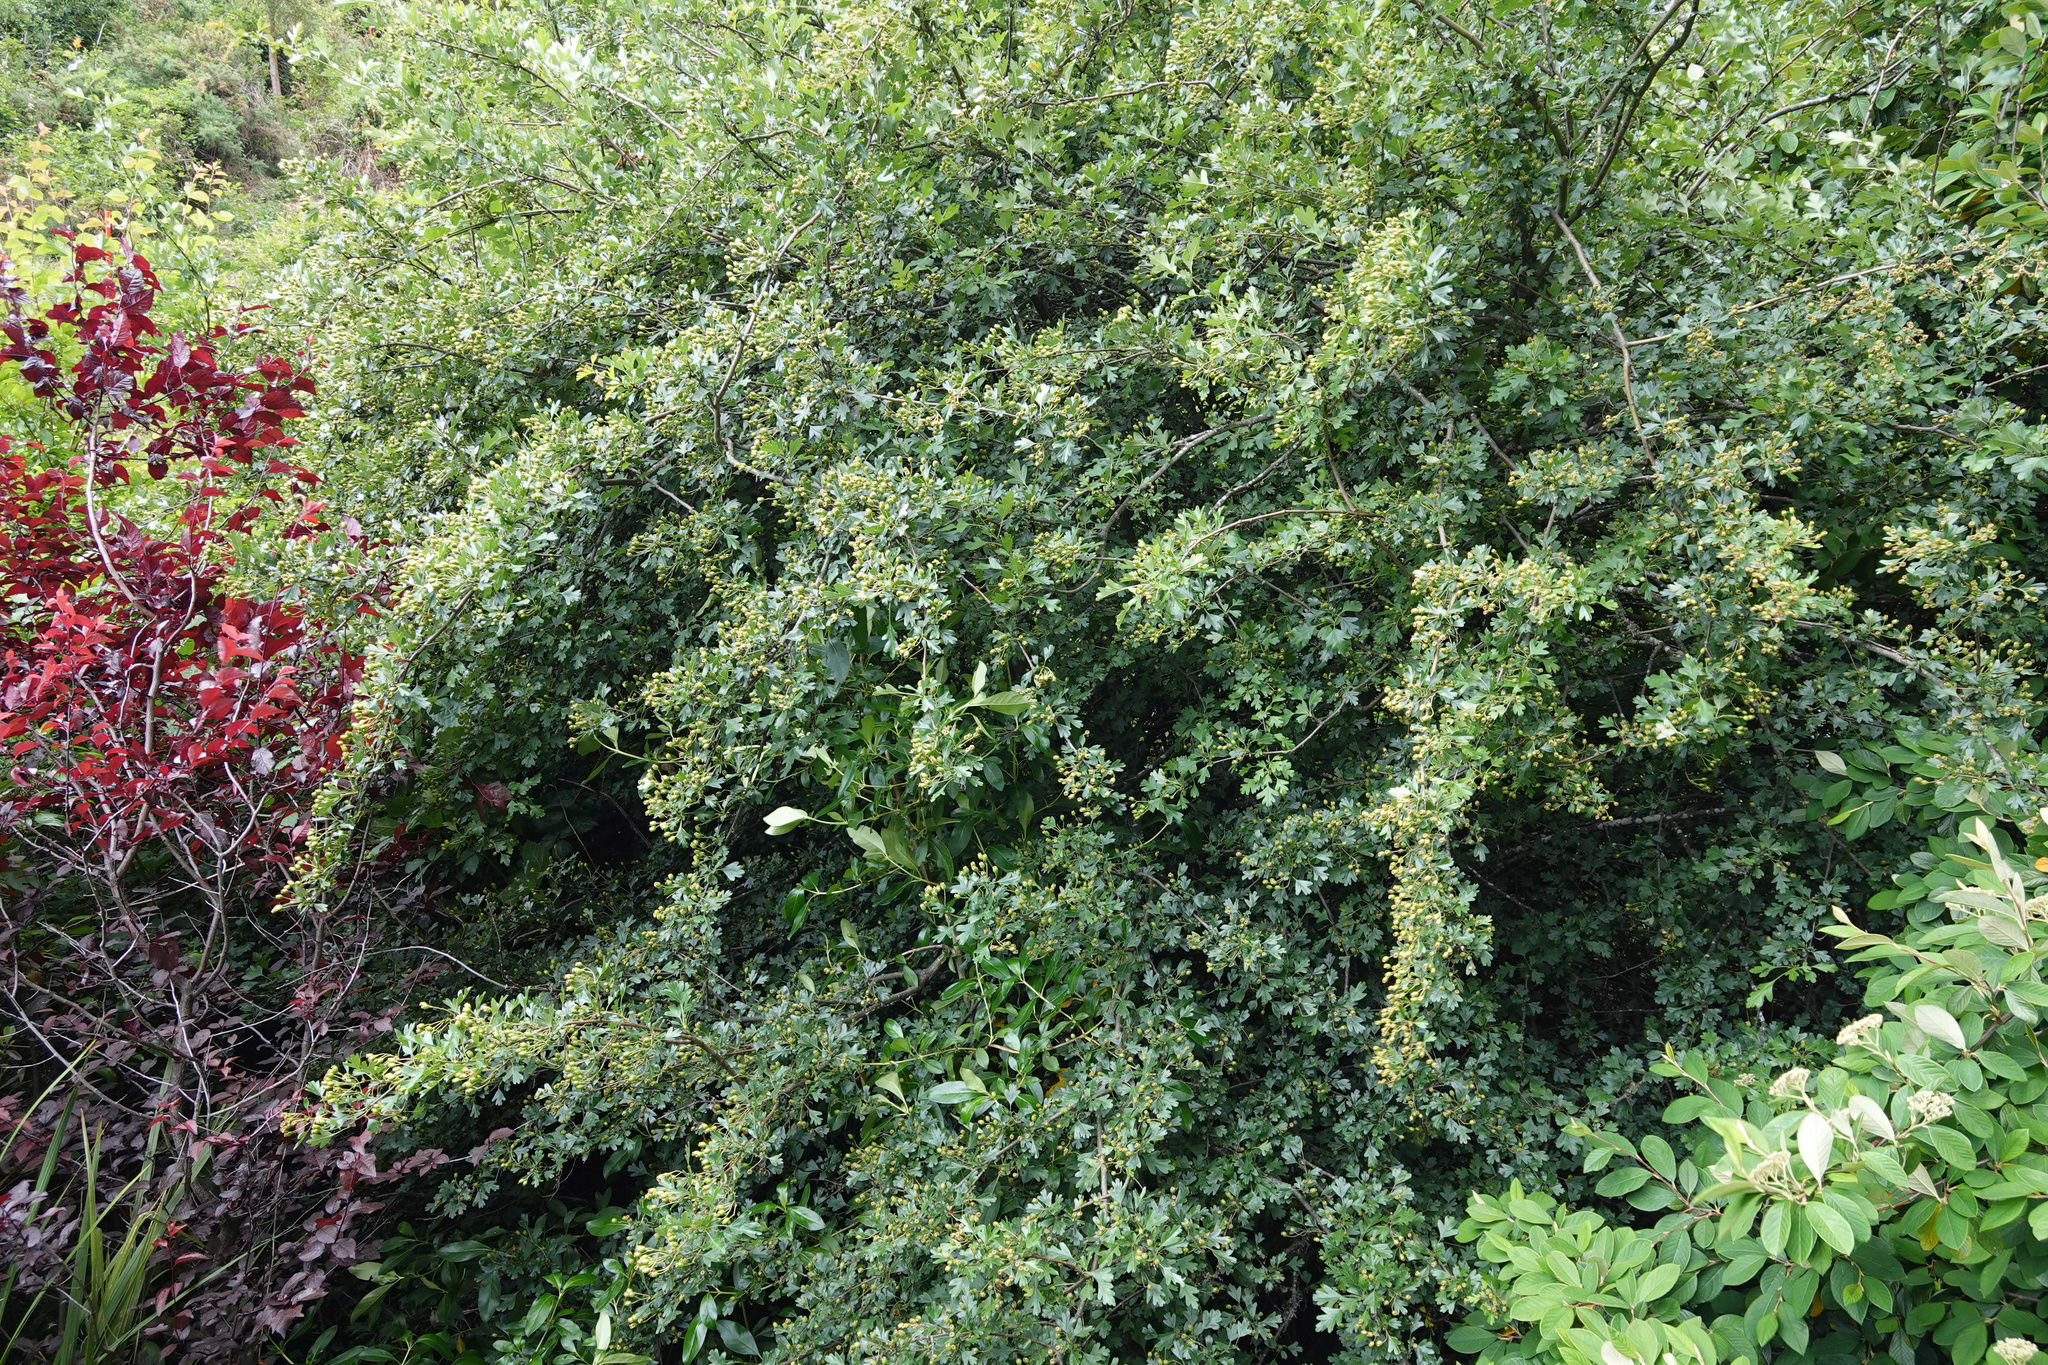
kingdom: Plantae
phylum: Tracheophyta
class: Magnoliopsida
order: Rosales
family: Rosaceae
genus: Crataegus
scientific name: Crataegus monogyna
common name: Hawthorn
